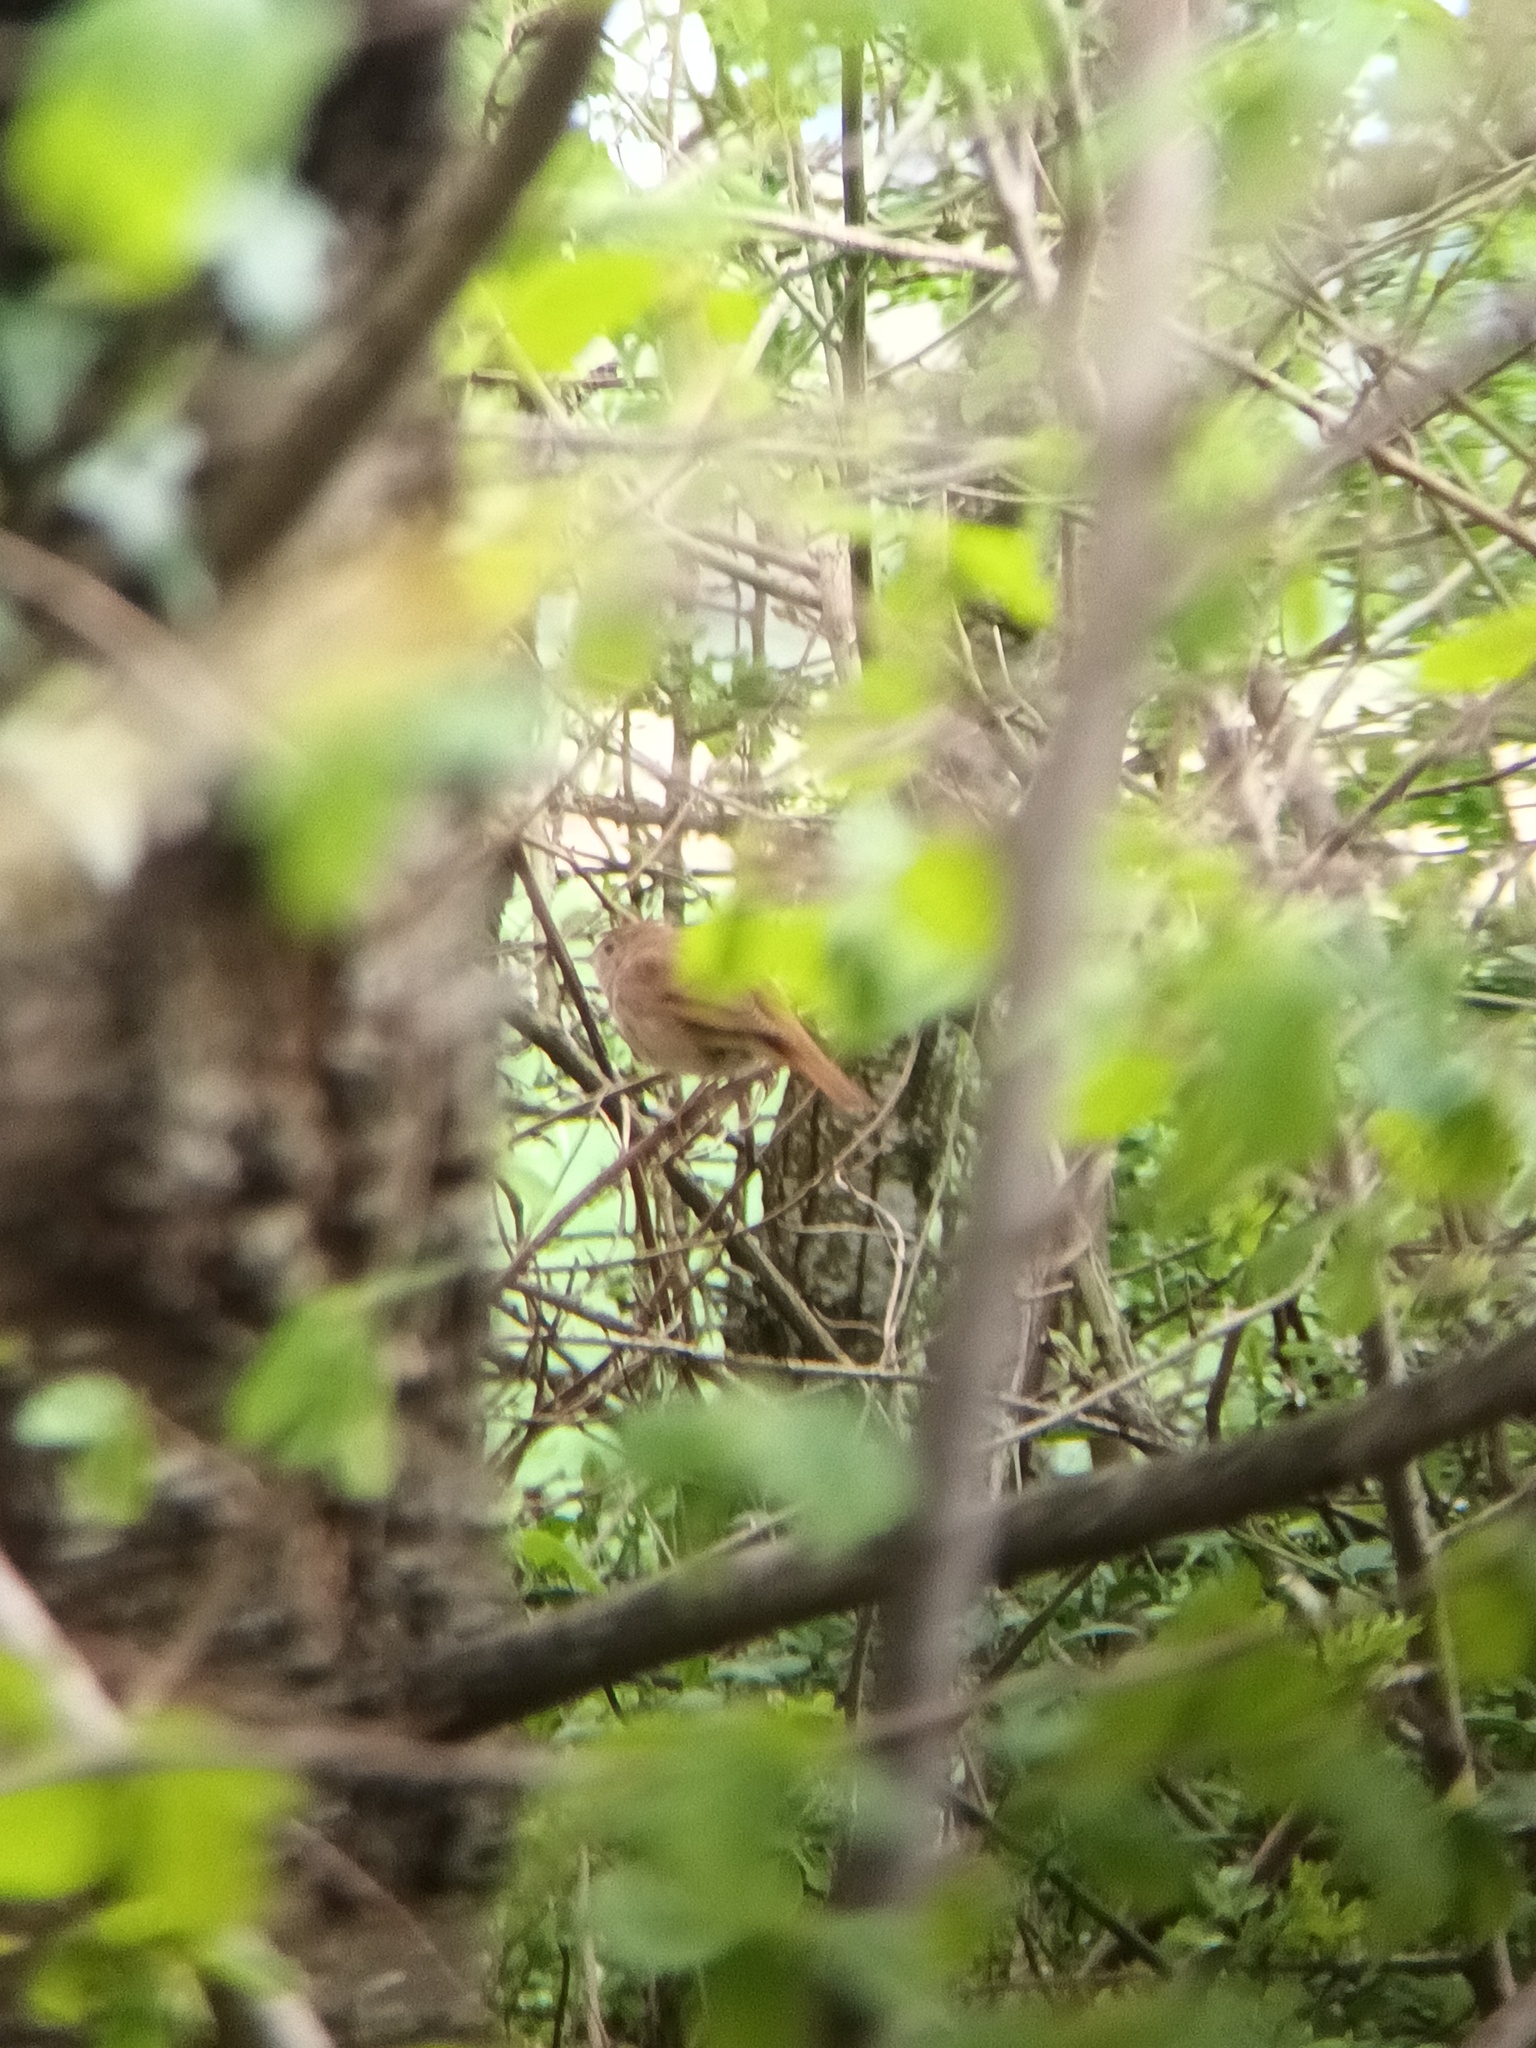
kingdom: Animalia
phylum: Chordata
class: Aves
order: Passeriformes
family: Muscicapidae
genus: Luscinia
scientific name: Luscinia megarhynchos
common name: Common nightingale
